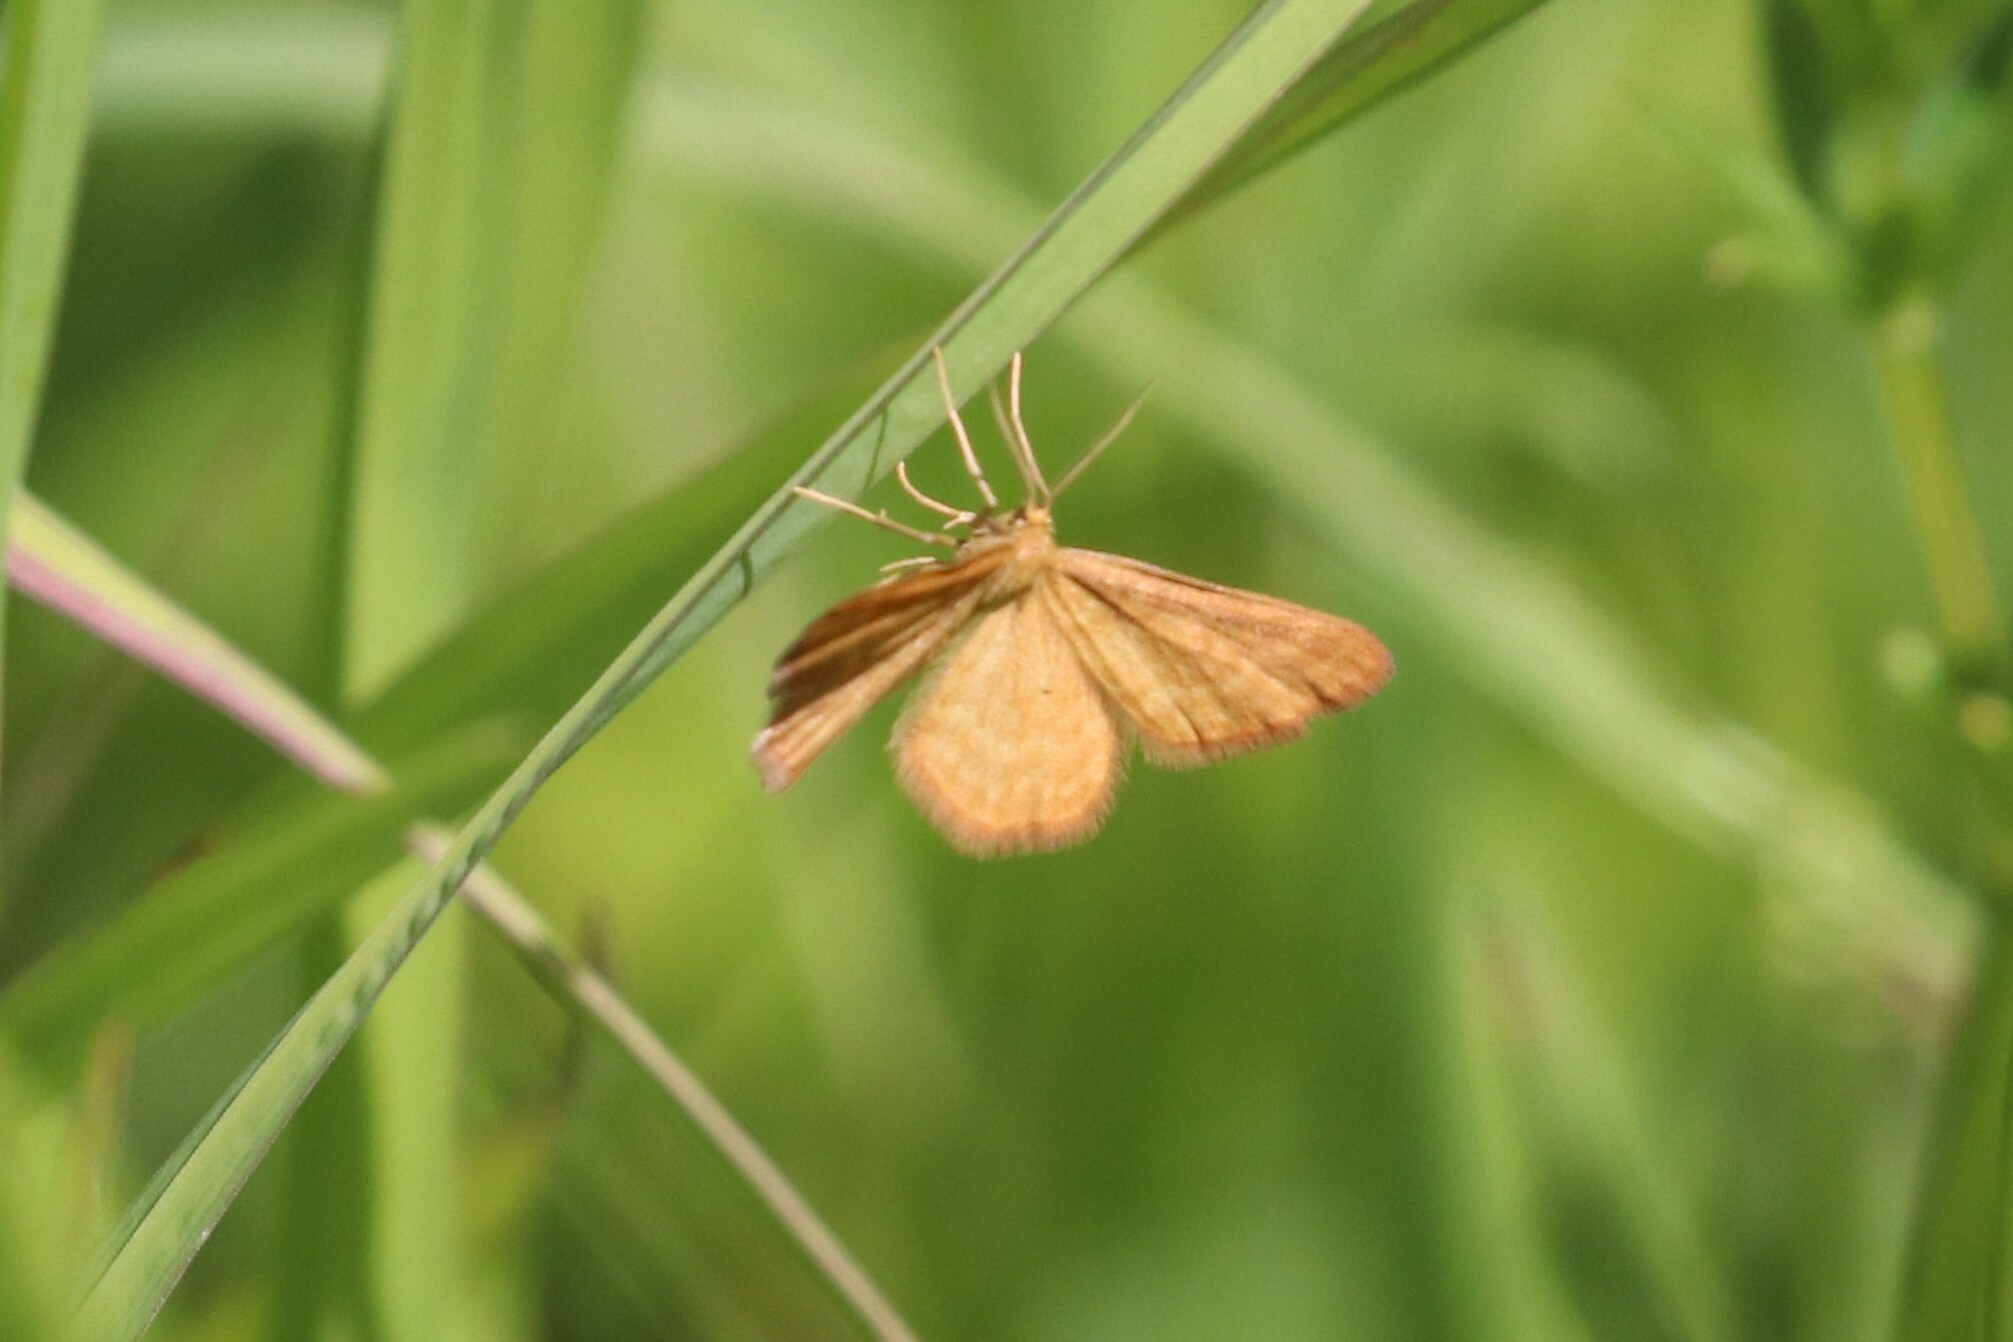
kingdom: Animalia
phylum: Arthropoda
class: Insecta
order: Lepidoptera
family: Geometridae
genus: Idaea
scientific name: Idaea serpentata
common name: Ochraceous wave
